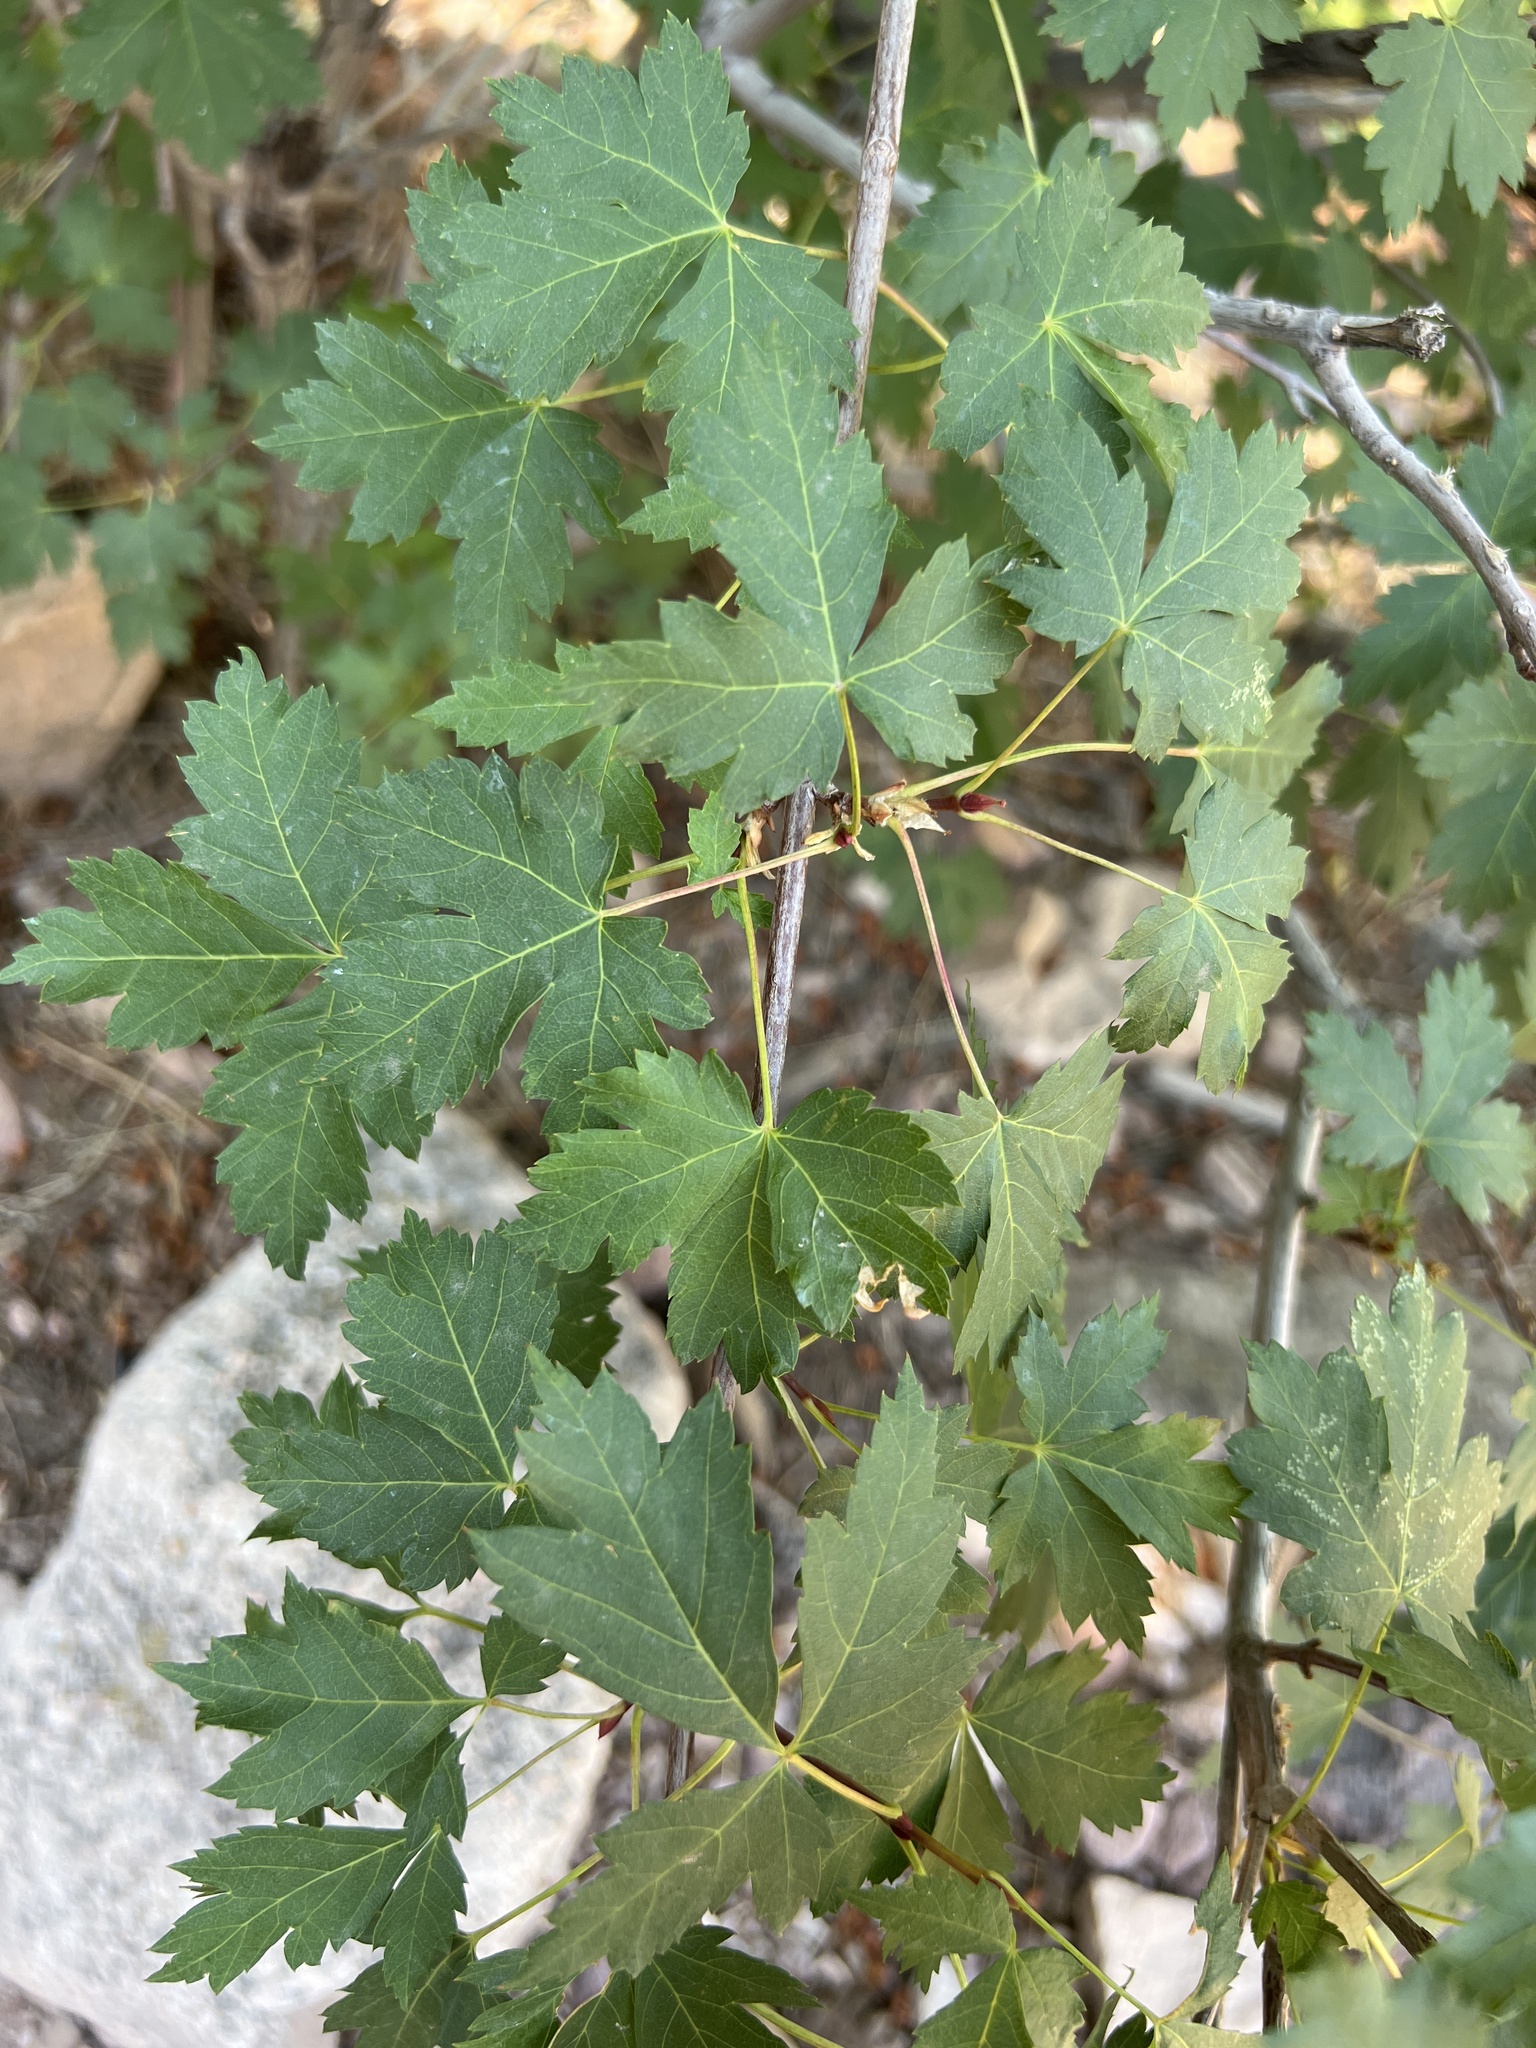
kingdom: Plantae
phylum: Tracheophyta
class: Magnoliopsida
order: Sapindales
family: Sapindaceae
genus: Acer
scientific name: Acer glabrum
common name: Rocky mountain maple
